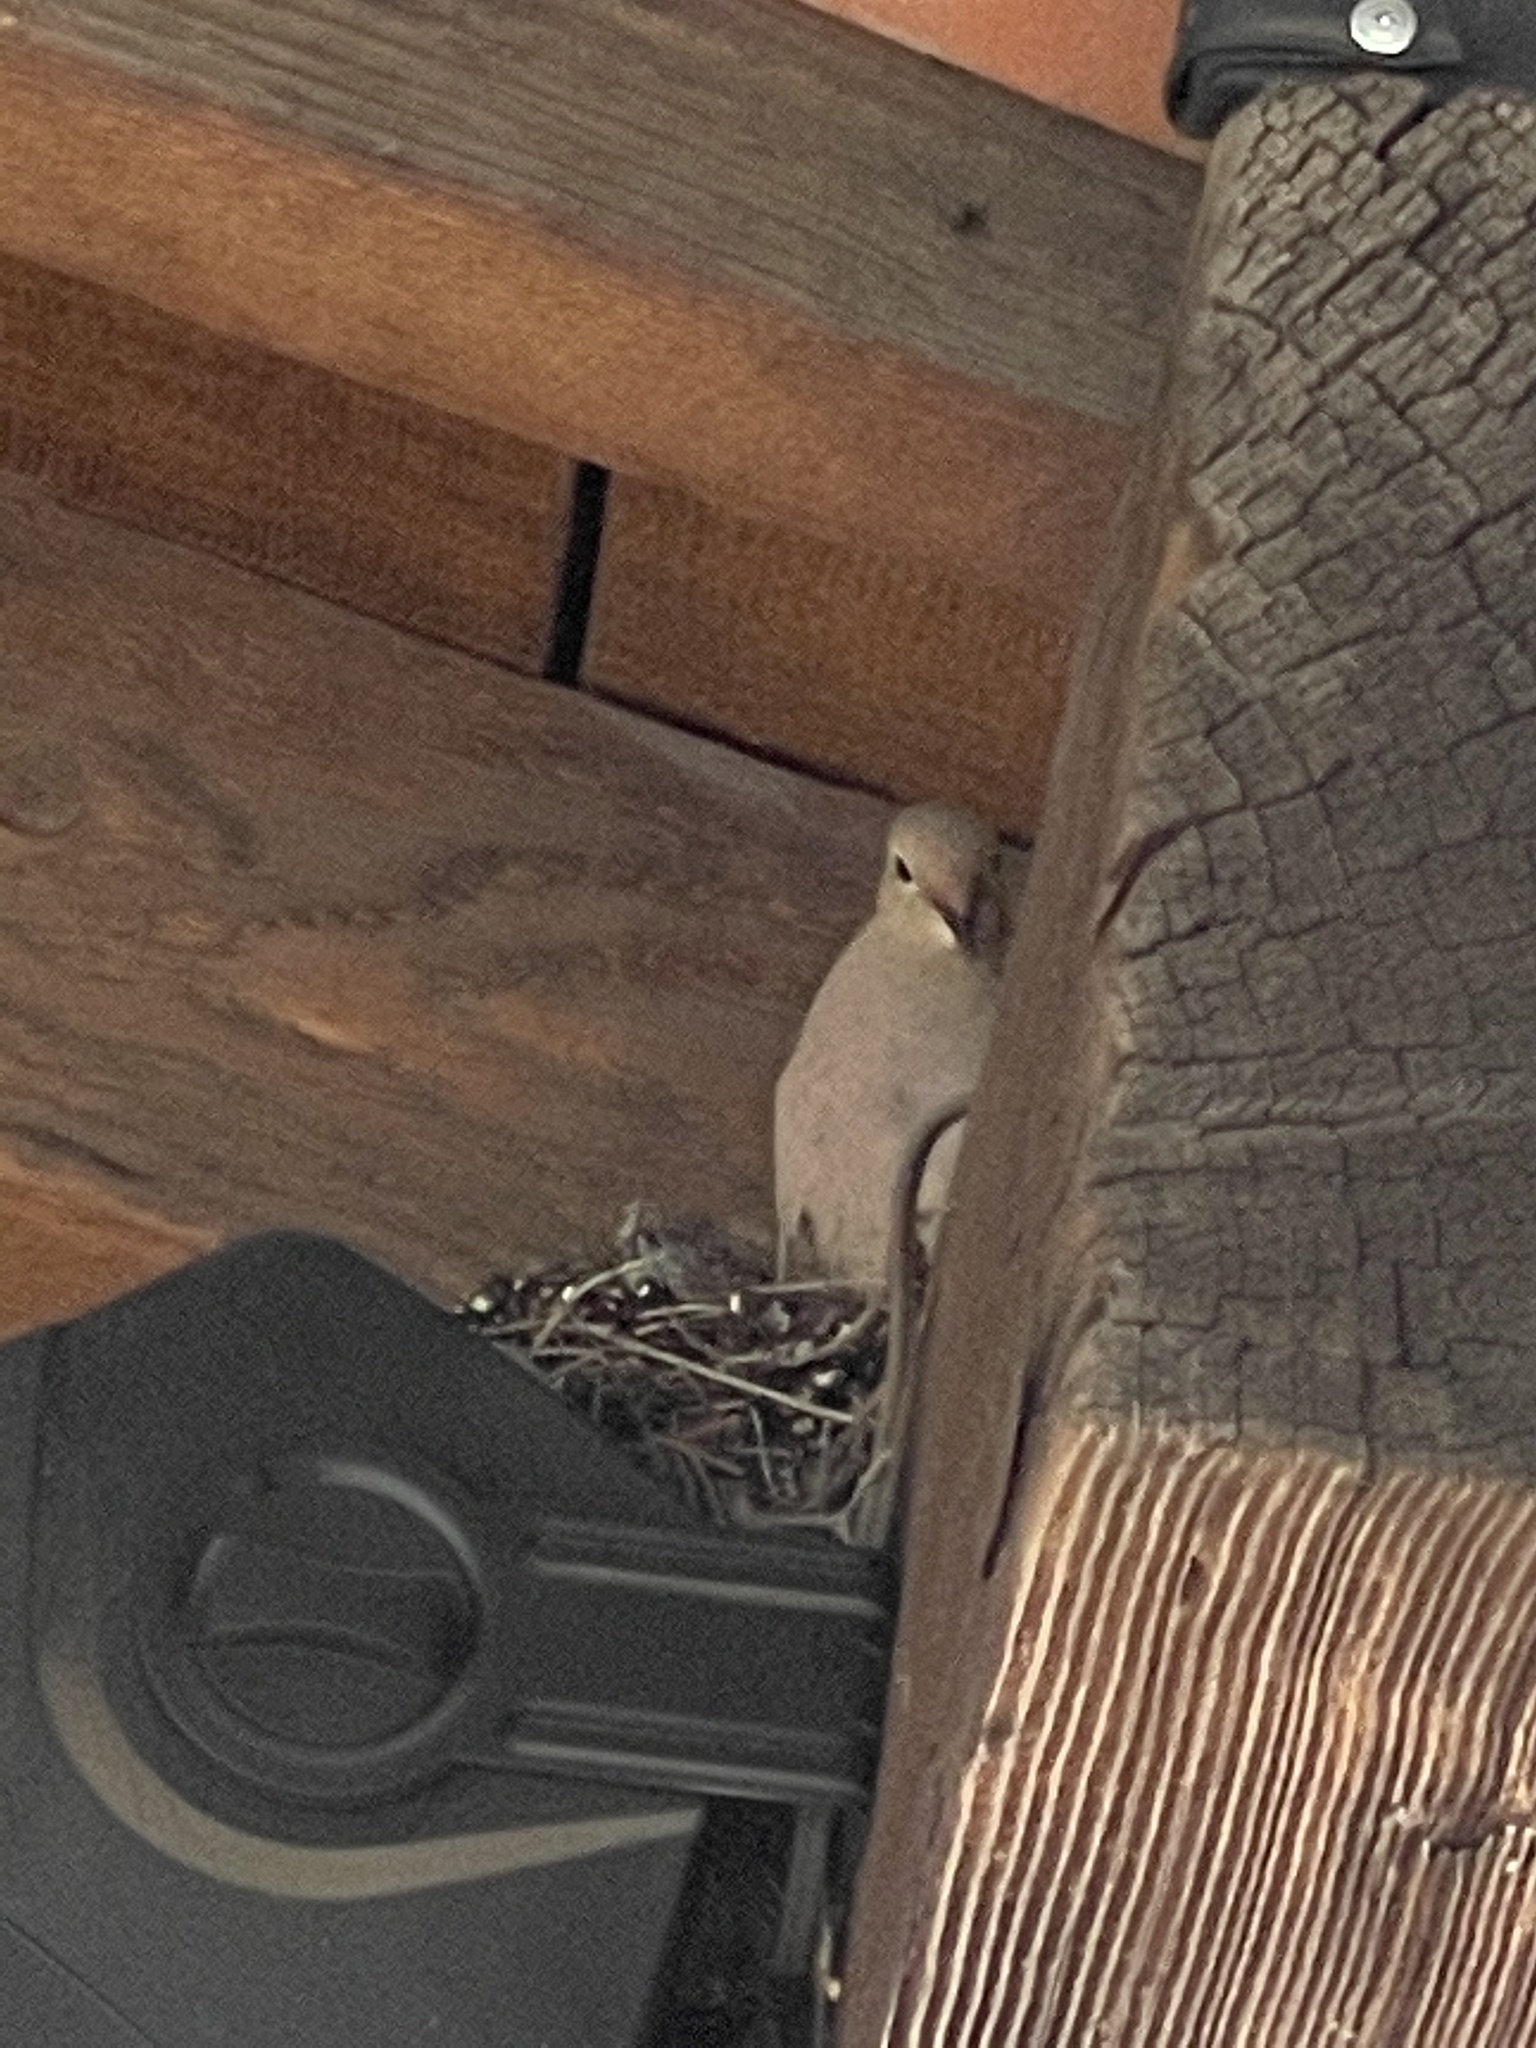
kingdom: Animalia
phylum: Chordata
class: Aves
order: Columbiformes
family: Columbidae
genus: Zenaida
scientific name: Zenaida macroura
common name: Mourning dove
